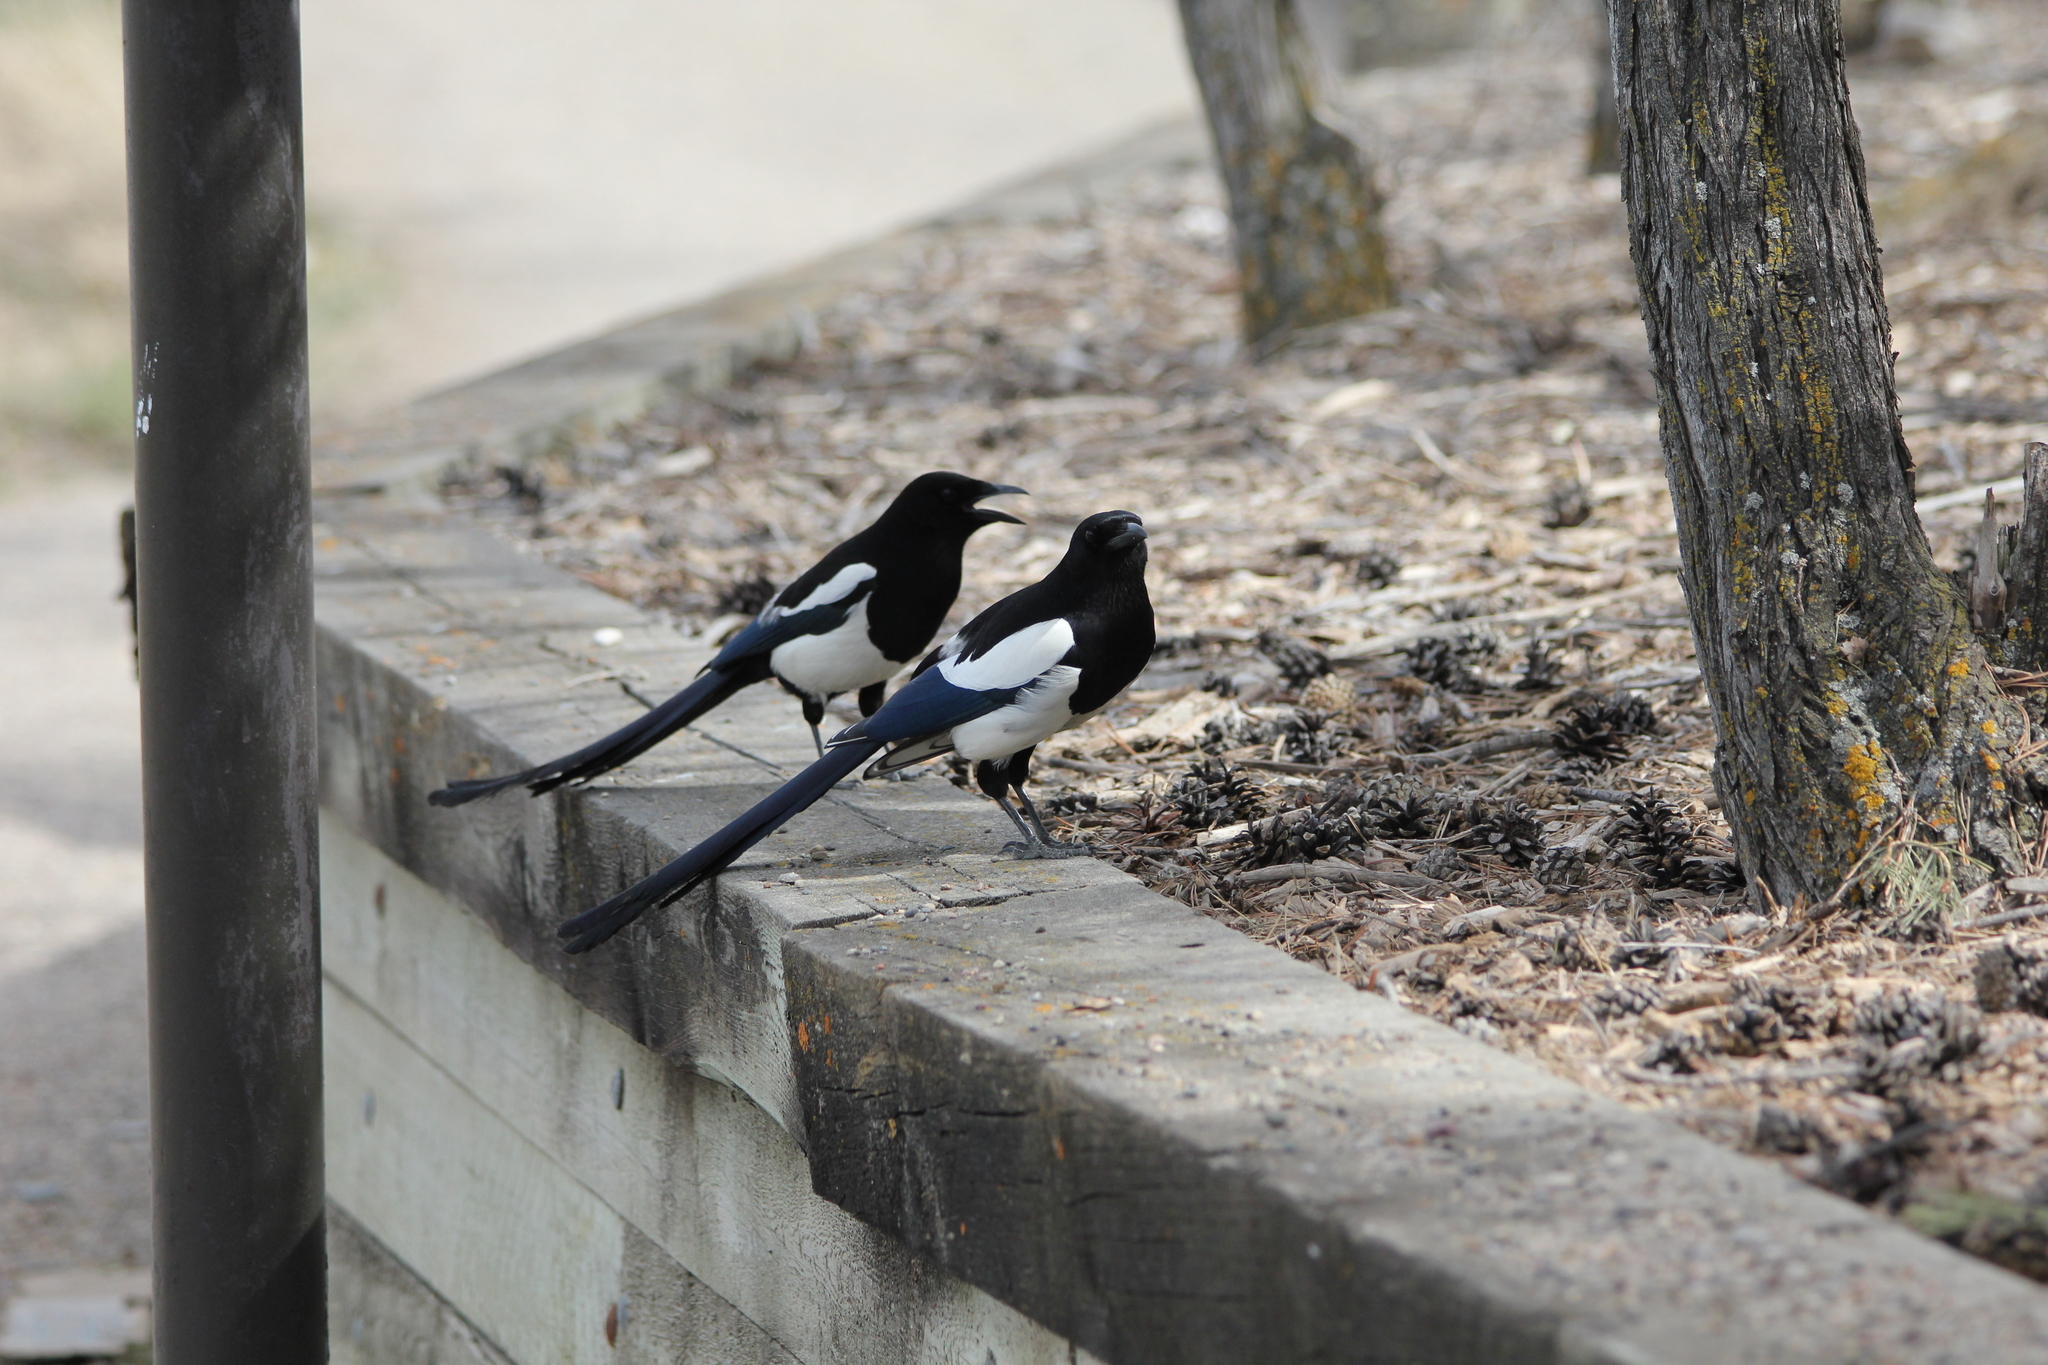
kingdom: Animalia
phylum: Chordata
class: Aves
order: Passeriformes
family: Corvidae
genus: Pica
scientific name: Pica hudsonia
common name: Black-billed magpie
